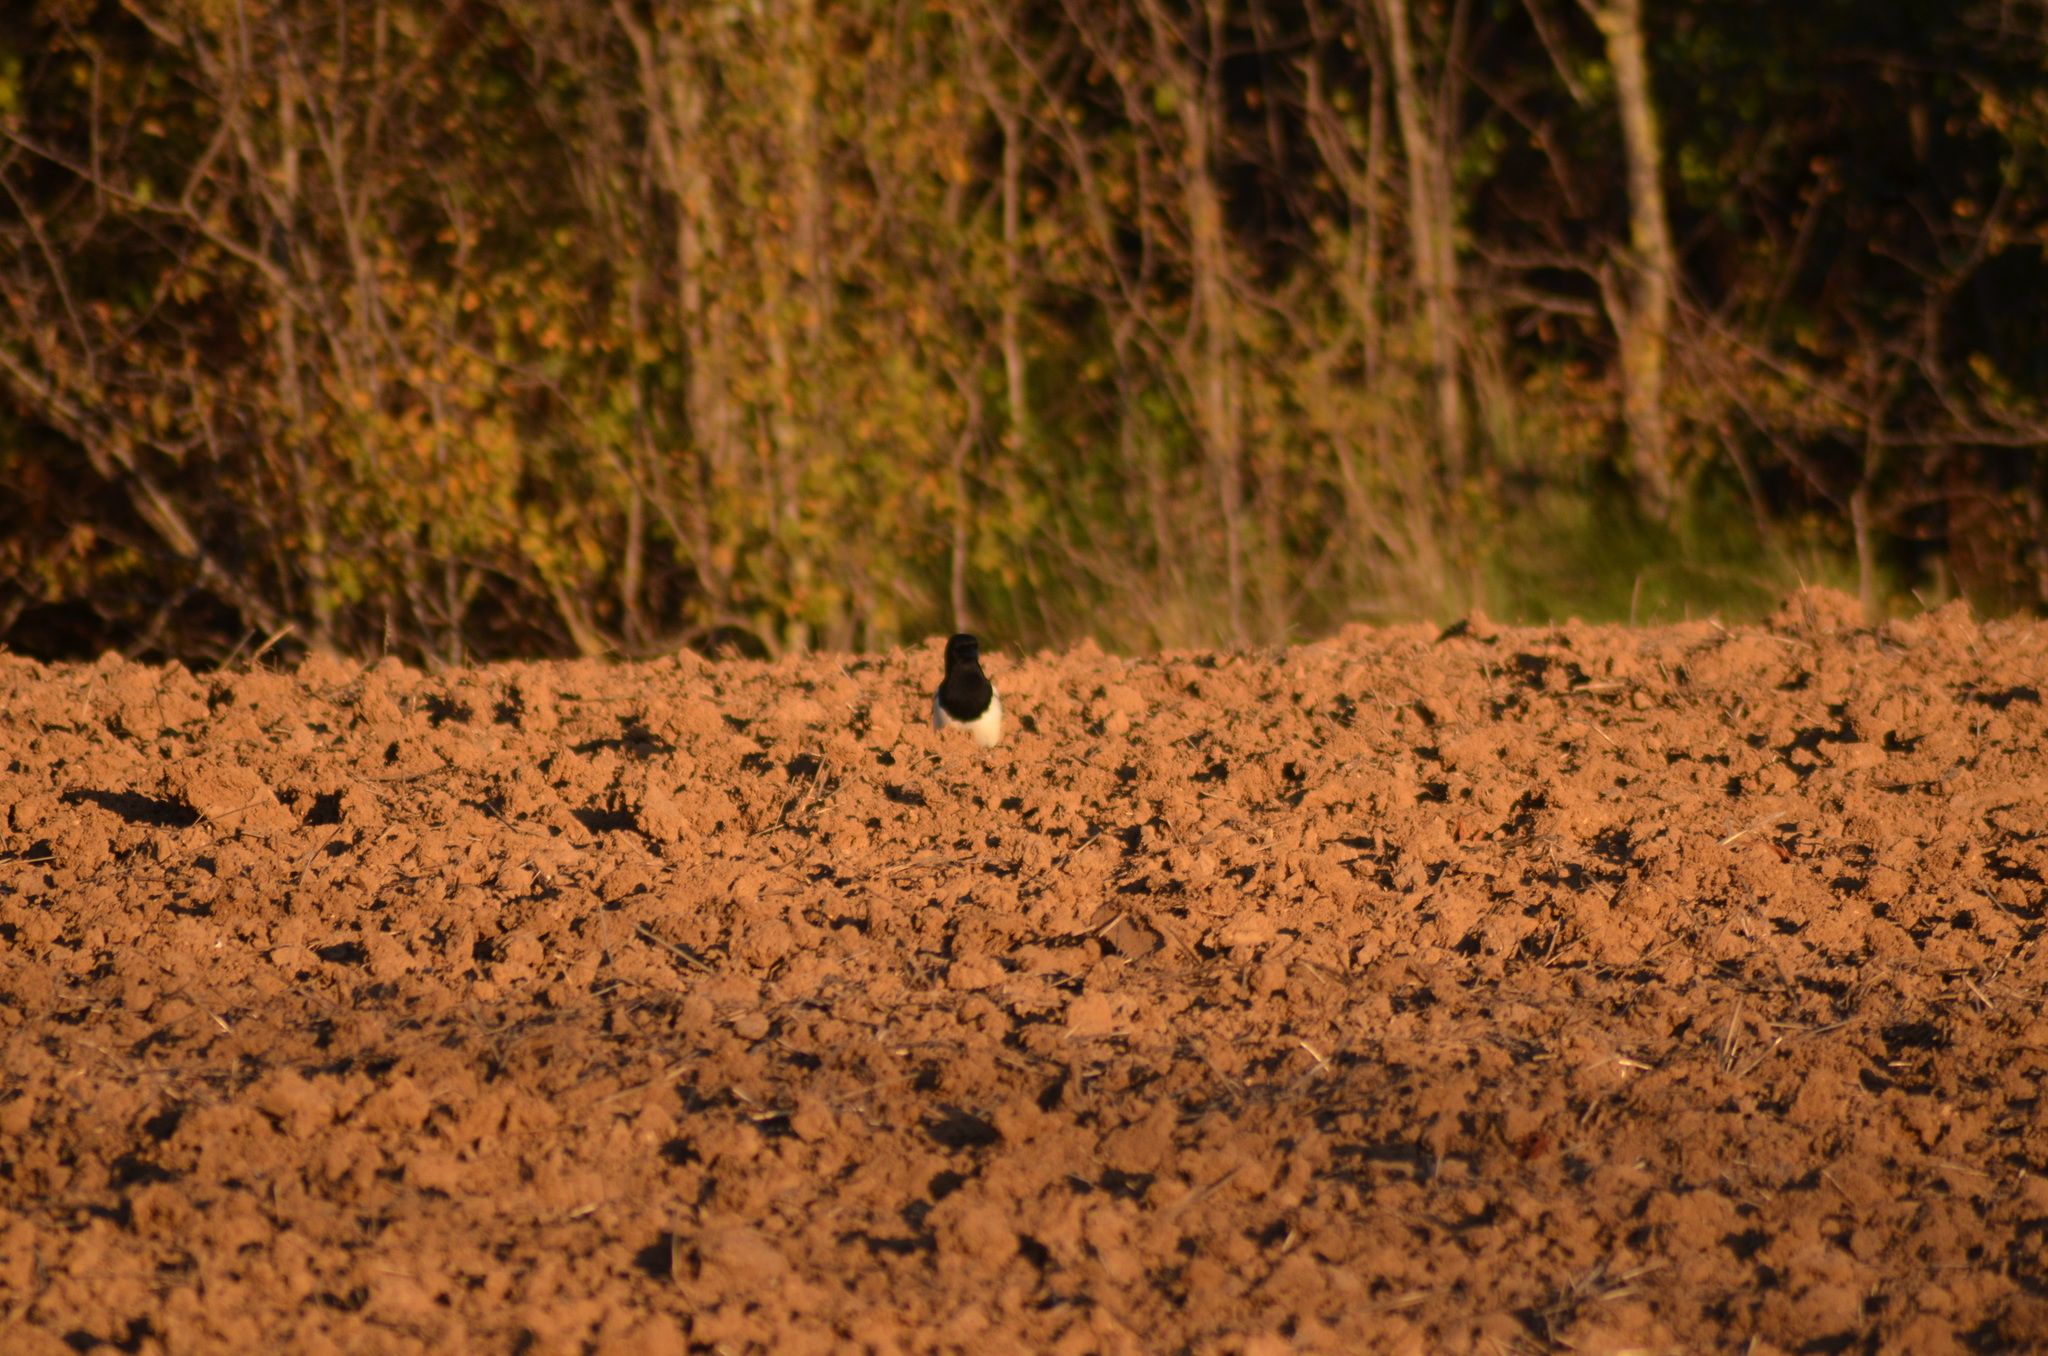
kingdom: Animalia
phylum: Chordata
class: Aves
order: Passeriformes
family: Corvidae
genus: Pica
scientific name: Pica pica
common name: Eurasian magpie
